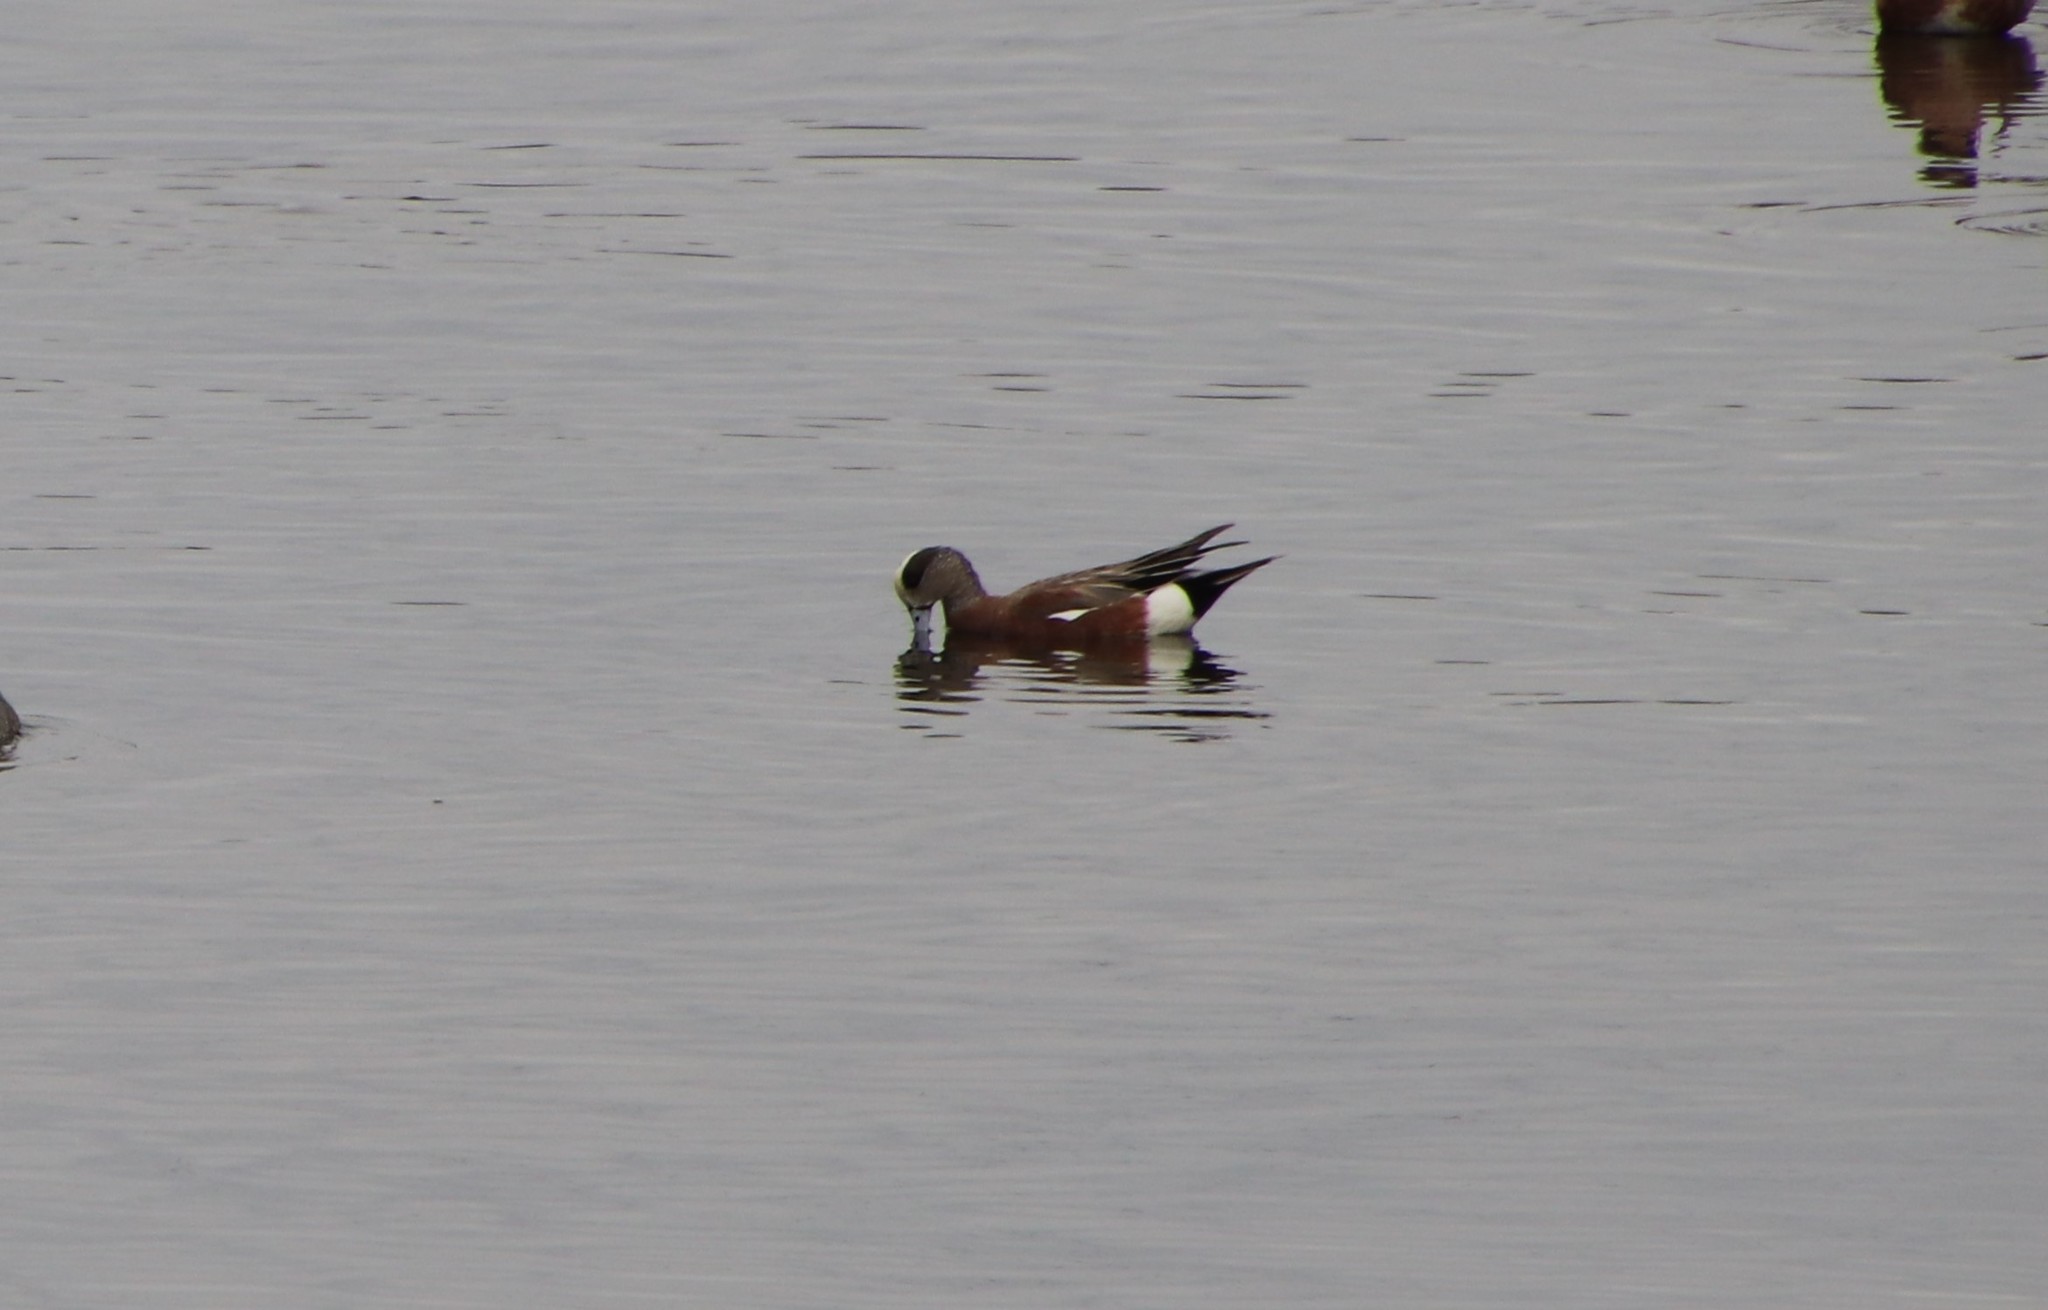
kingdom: Animalia
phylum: Chordata
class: Aves
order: Anseriformes
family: Anatidae
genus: Mareca
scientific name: Mareca americana
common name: American wigeon
